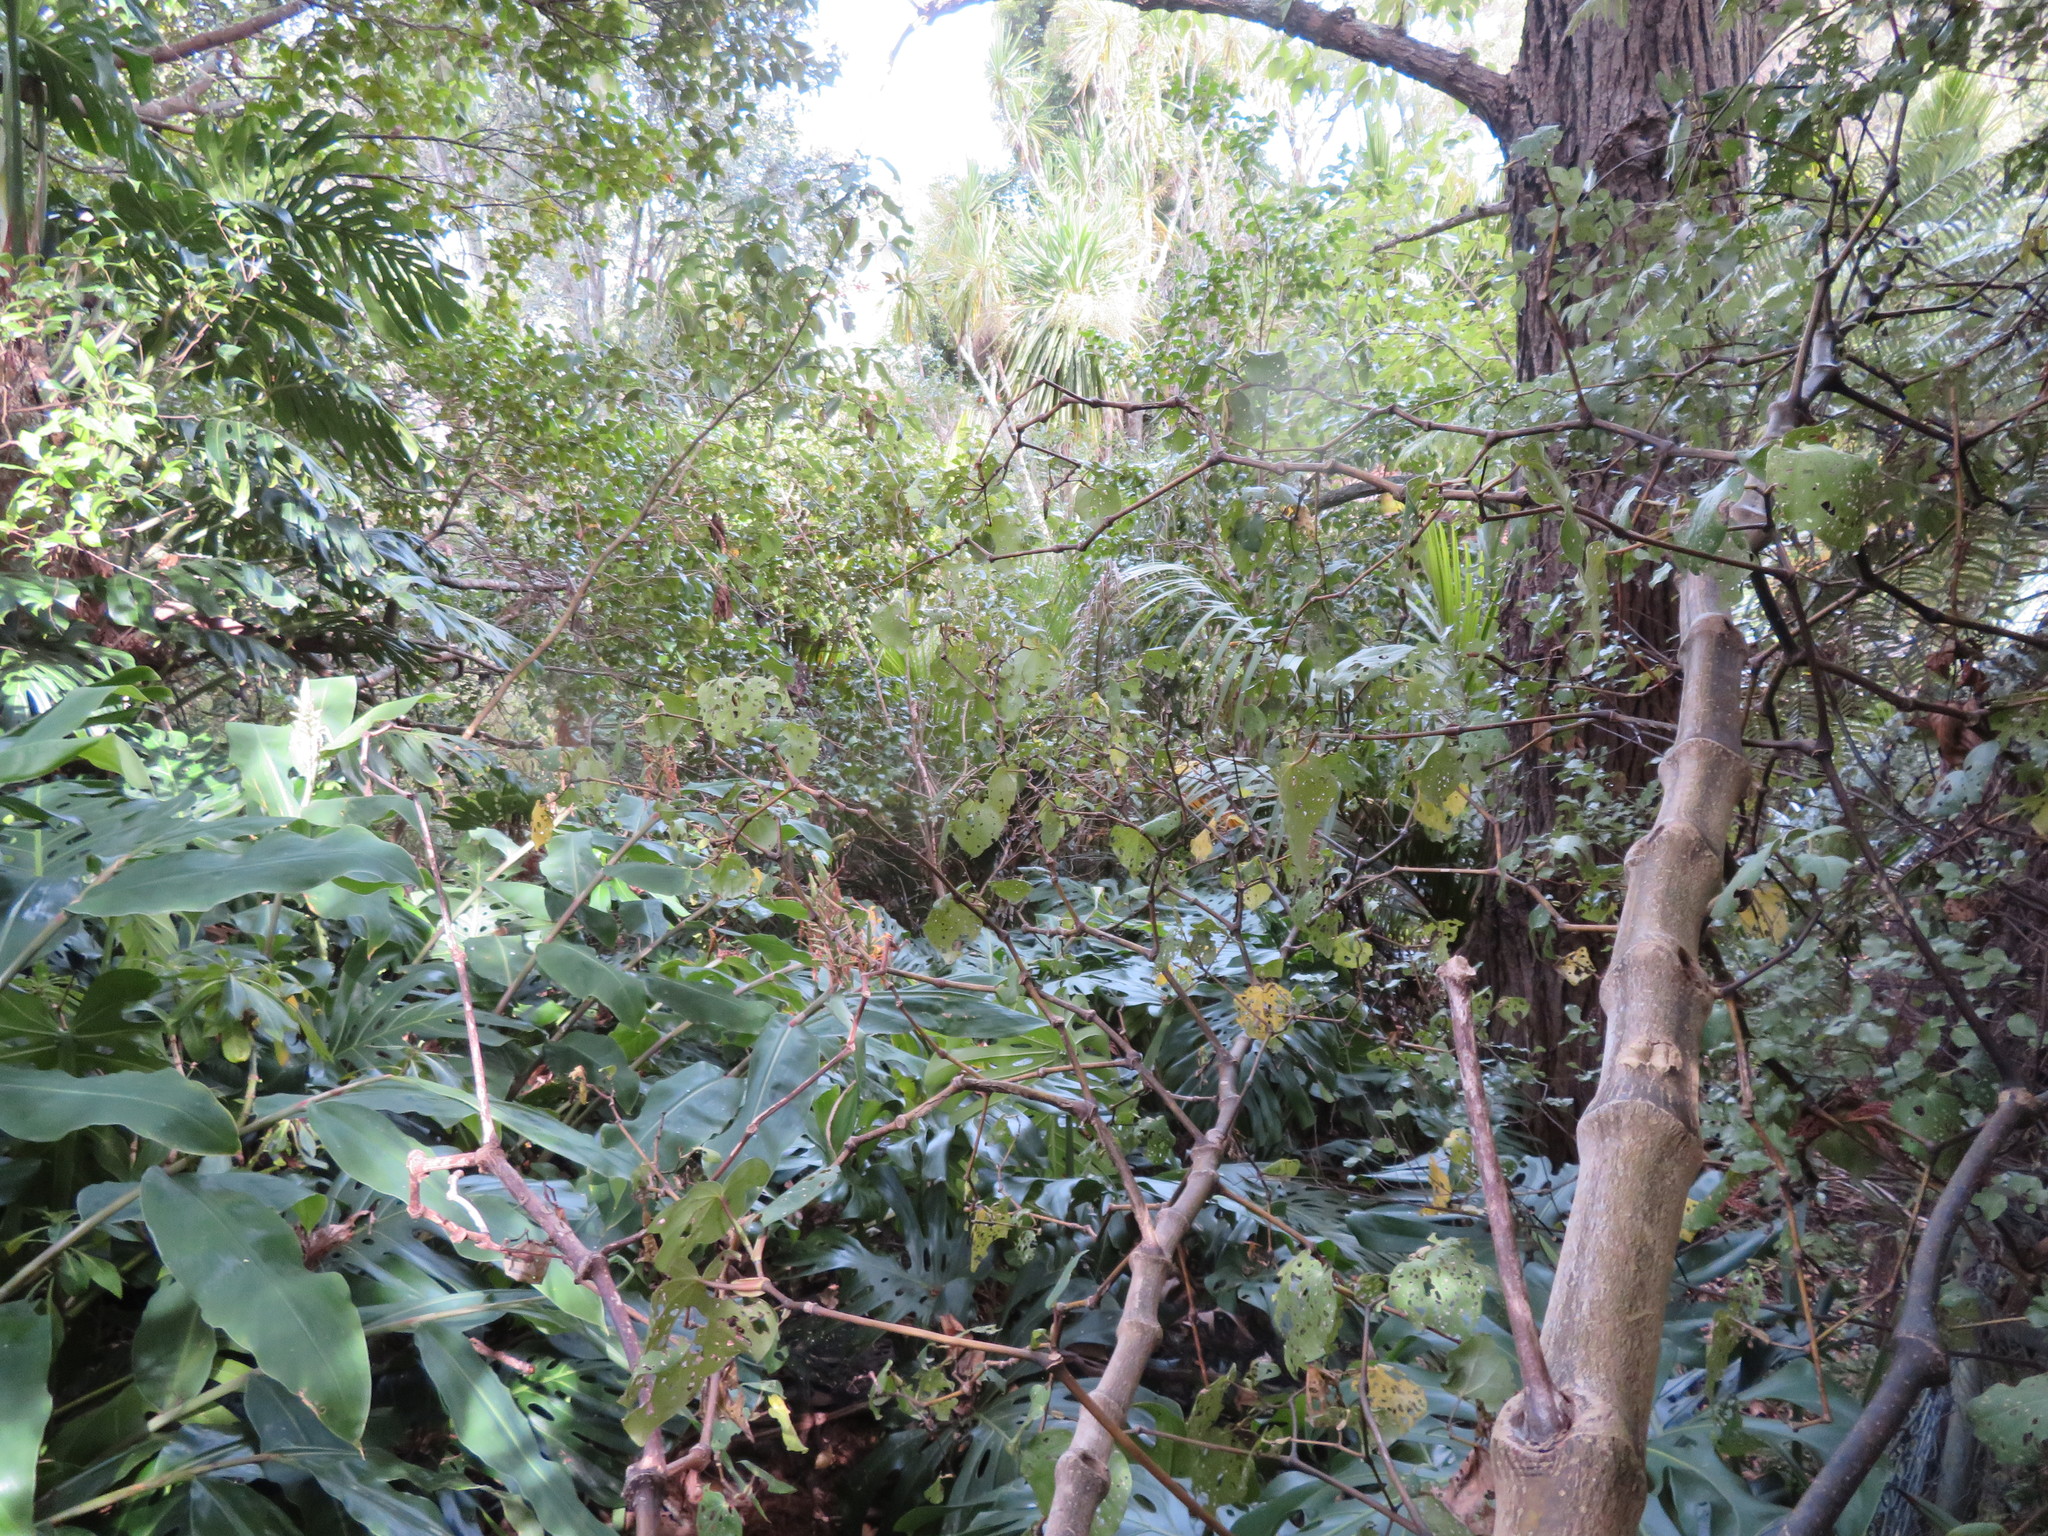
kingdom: Plantae
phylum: Tracheophyta
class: Liliopsida
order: Zingiberales
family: Zingiberaceae
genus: Hedychium
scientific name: Hedychium gardnerianum
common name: Himalayan ginger
